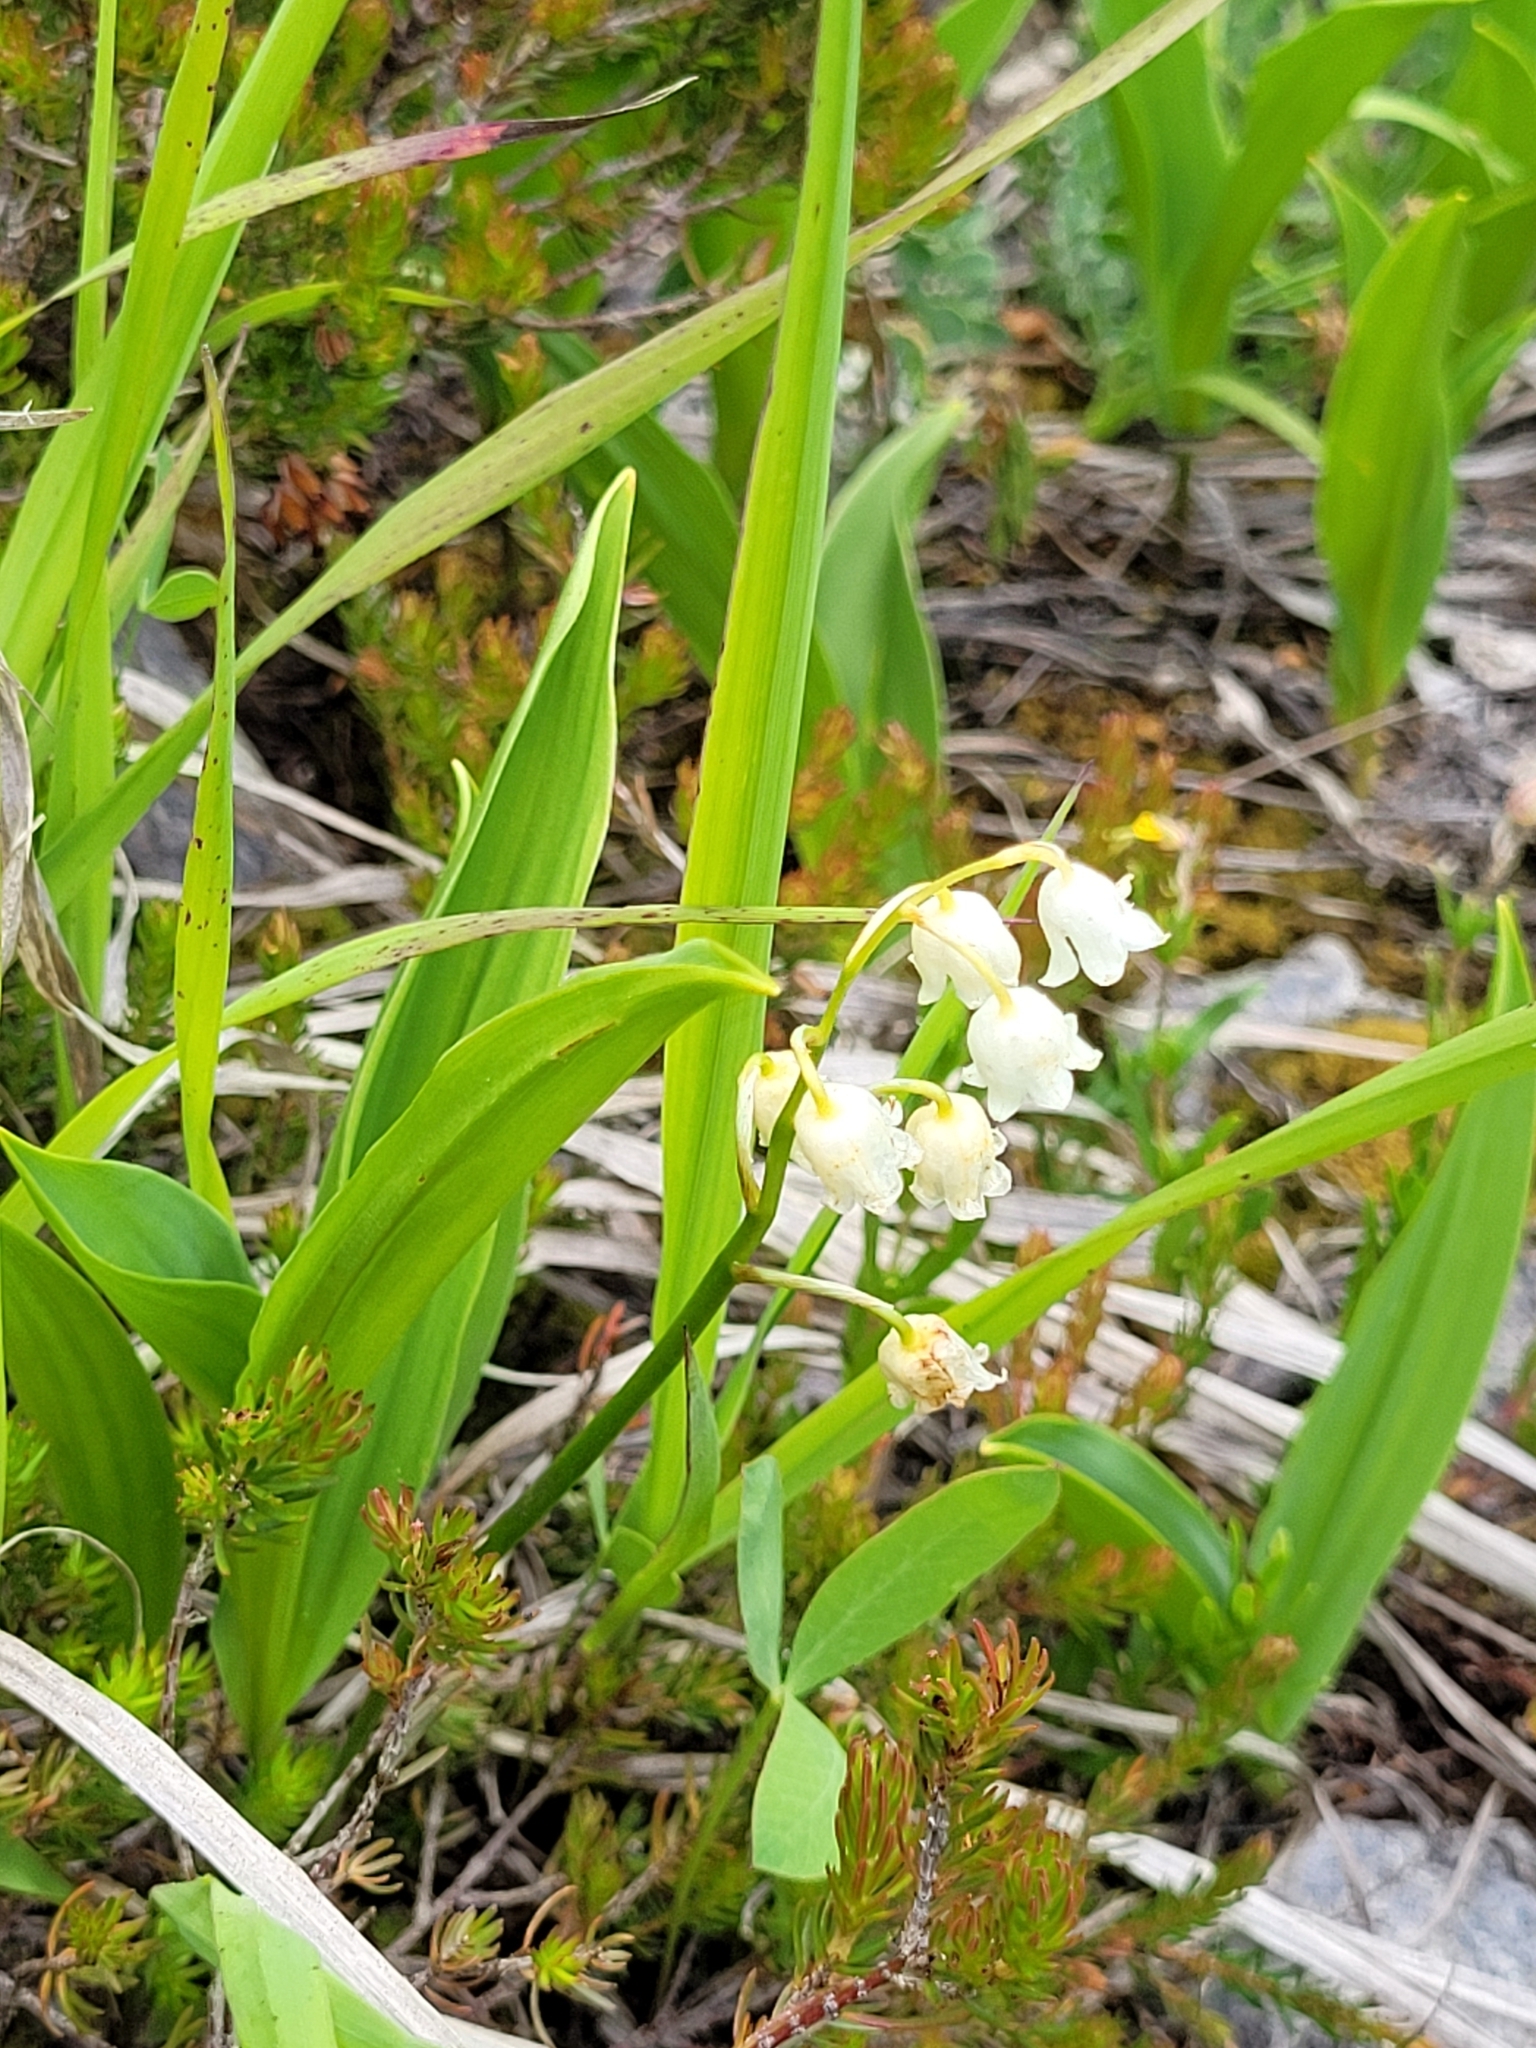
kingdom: Plantae
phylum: Tracheophyta
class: Liliopsida
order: Asparagales
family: Asparagaceae
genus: Convallaria
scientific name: Convallaria majalis
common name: Lily-of-the-valley
